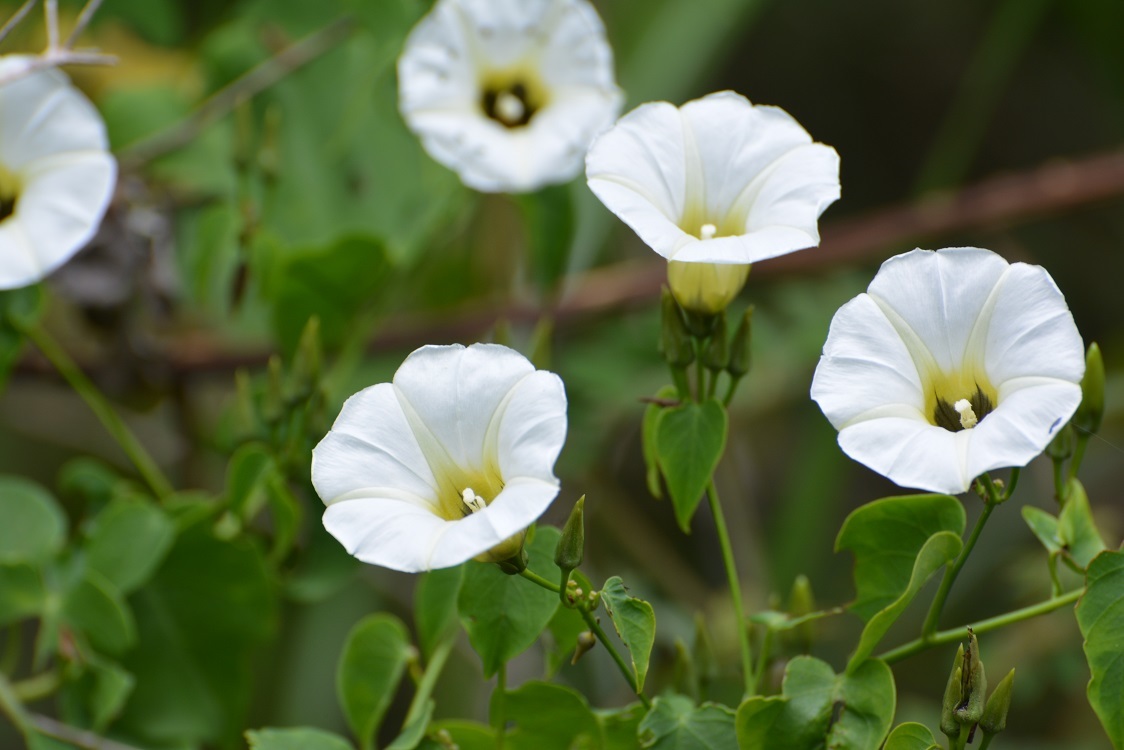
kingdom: Plantae
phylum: Tracheophyta
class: Magnoliopsida
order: Solanales
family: Convolvulaceae
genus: Ipomoea
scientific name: Ipomoea corymbosa
